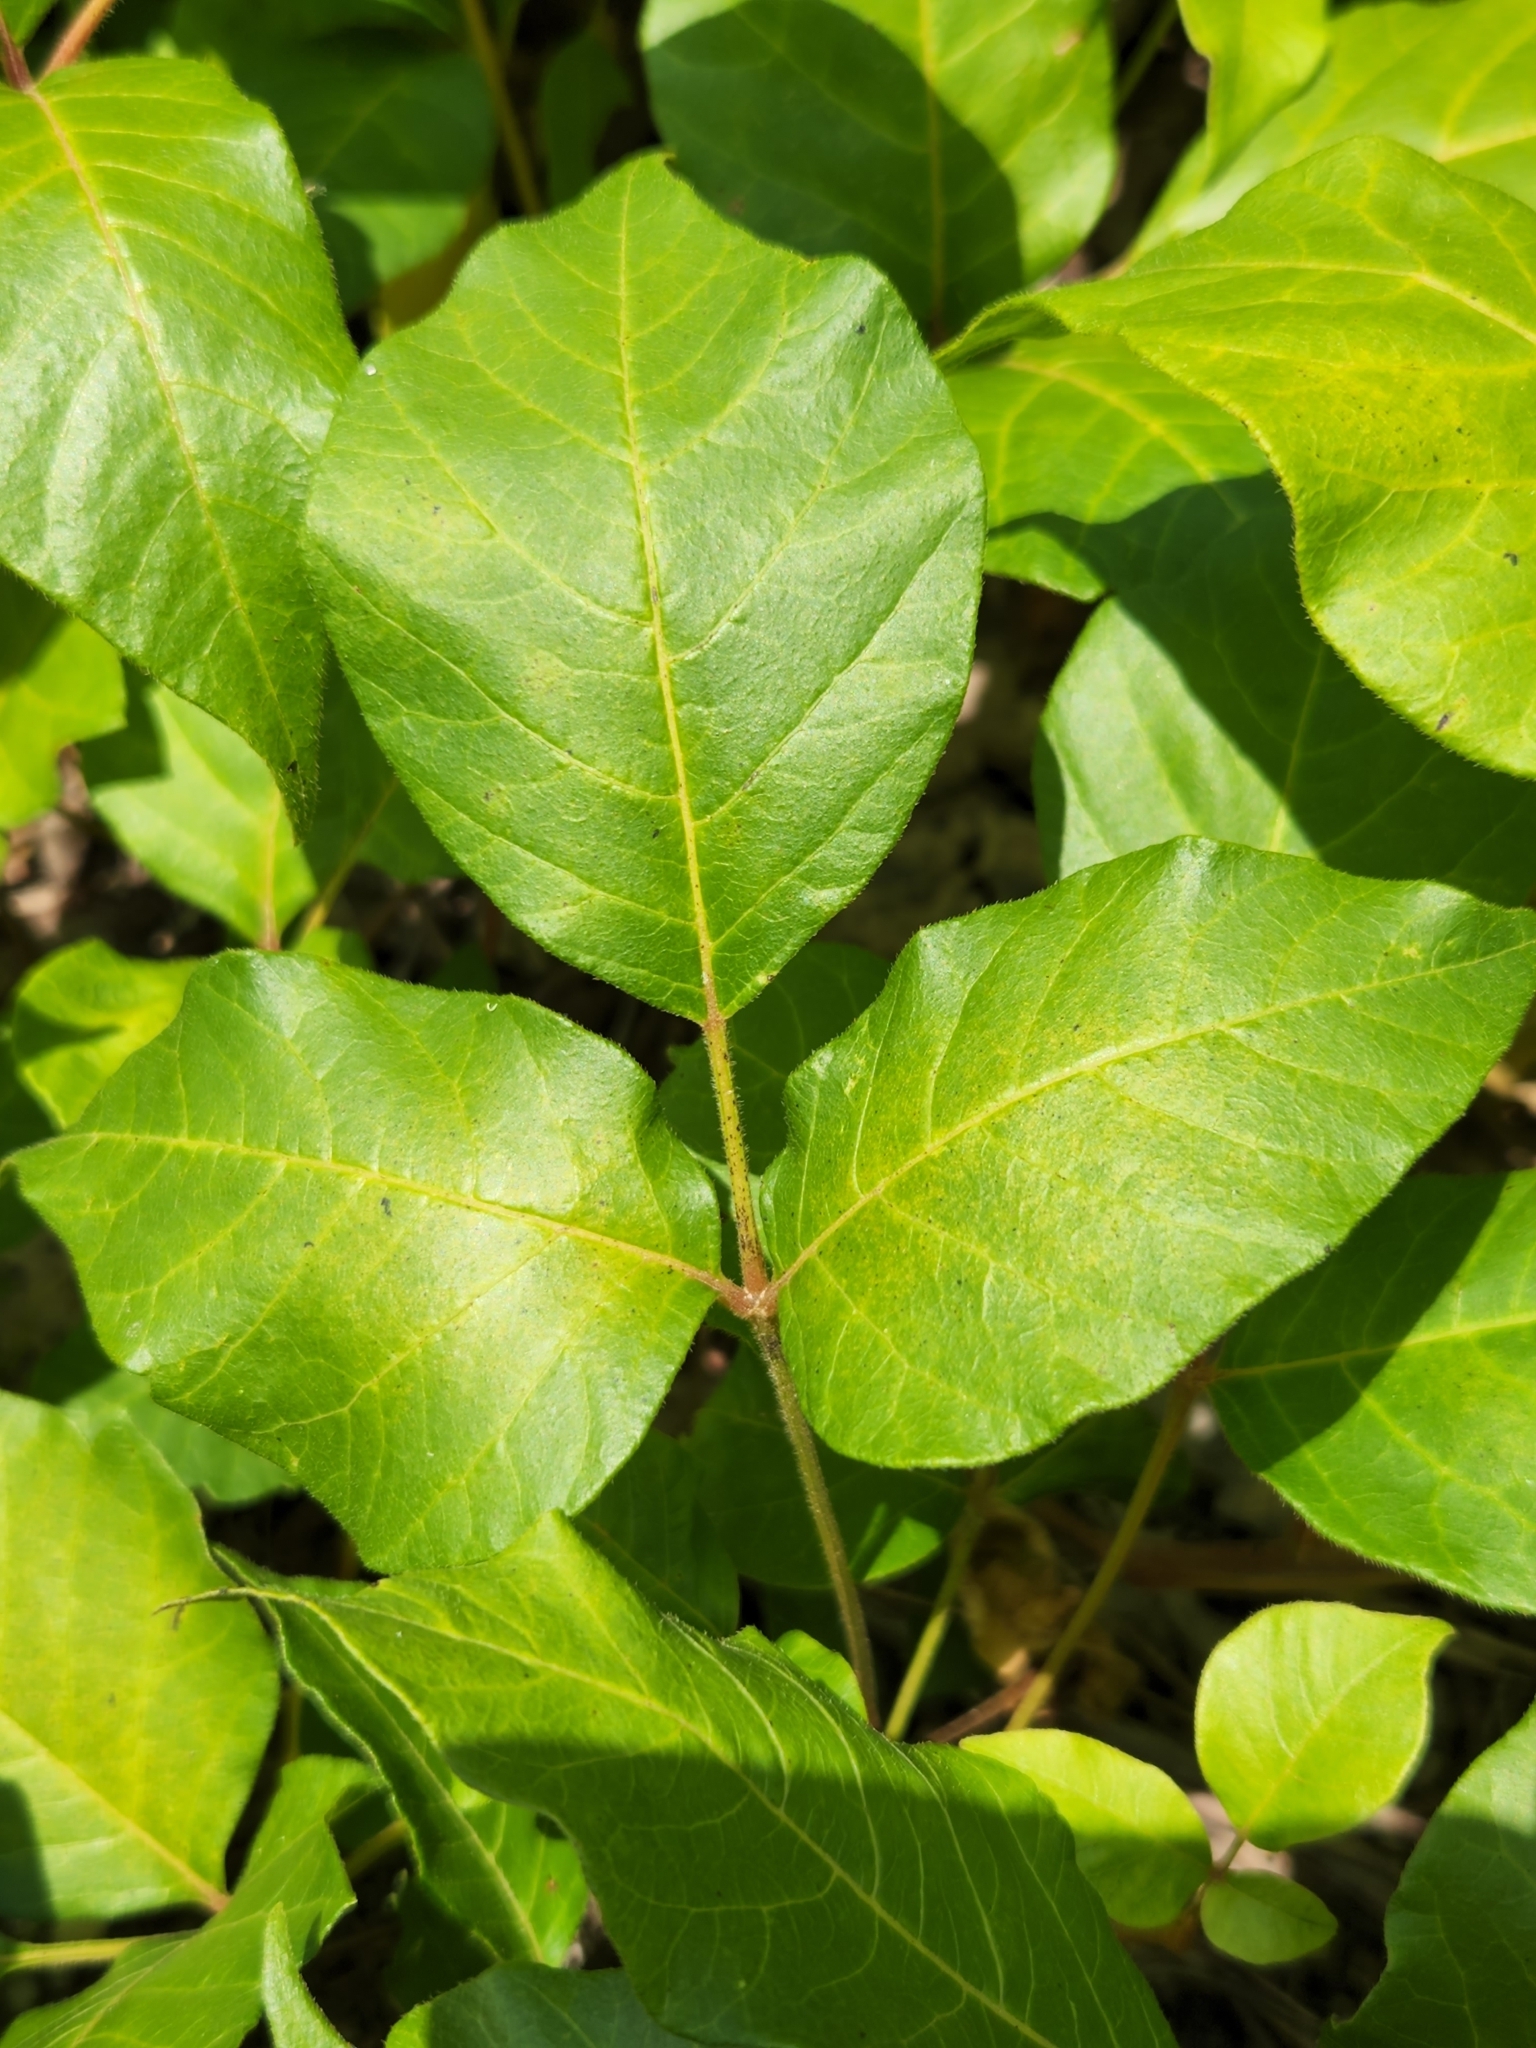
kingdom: Plantae
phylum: Tracheophyta
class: Magnoliopsida
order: Sapindales
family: Anacardiaceae
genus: Toxicodendron
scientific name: Toxicodendron radicans
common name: Poison ivy
